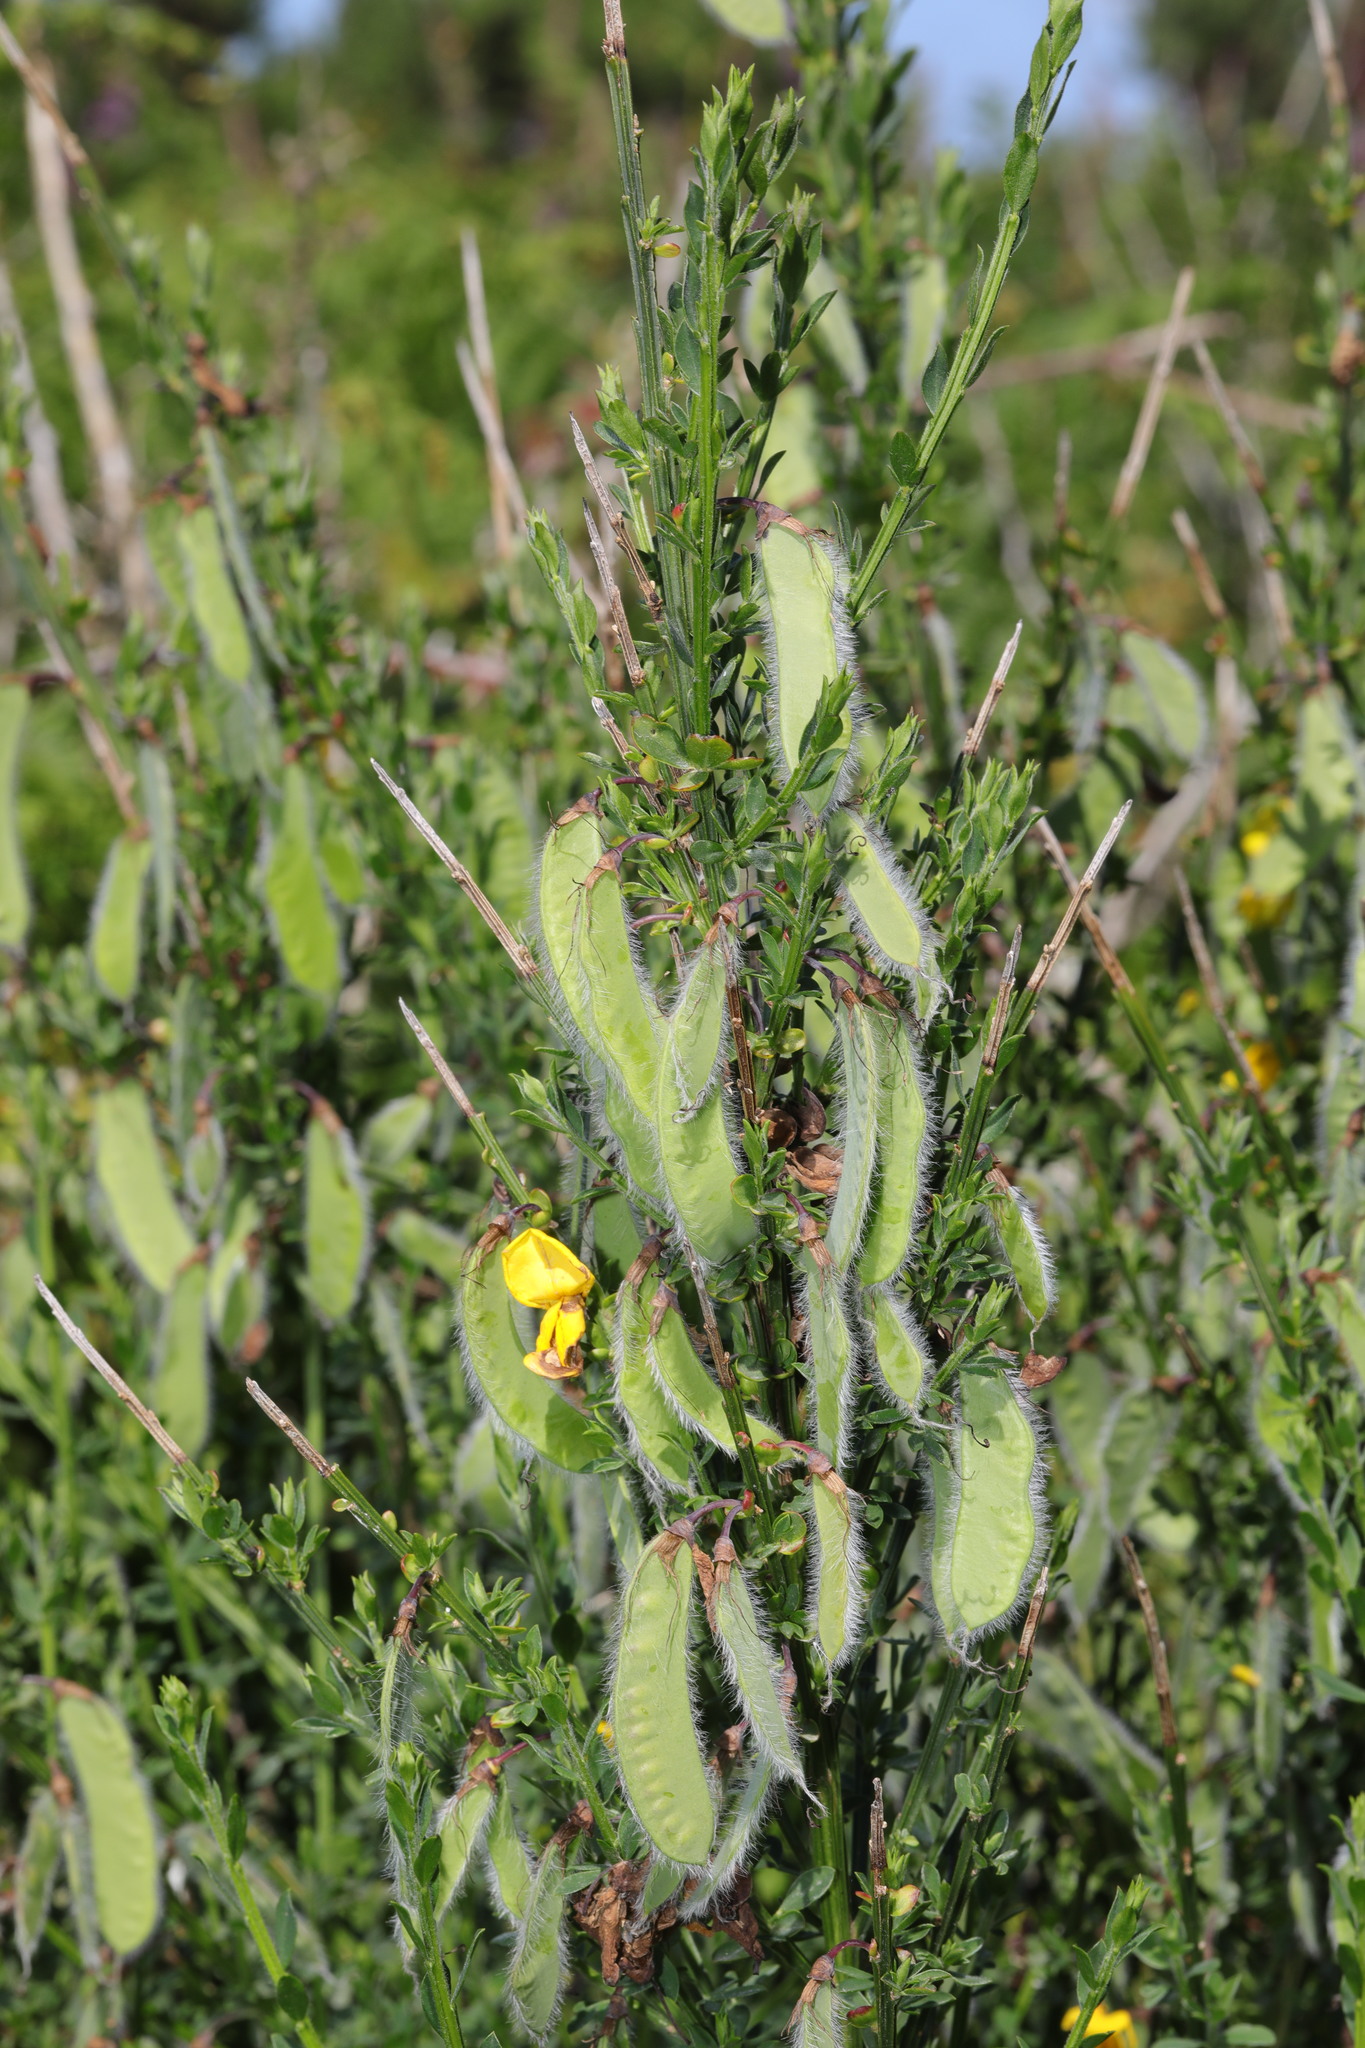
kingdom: Plantae
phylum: Tracheophyta
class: Magnoliopsida
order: Fabales
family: Fabaceae
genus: Cytisus
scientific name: Cytisus scoparius
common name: Scotch broom
